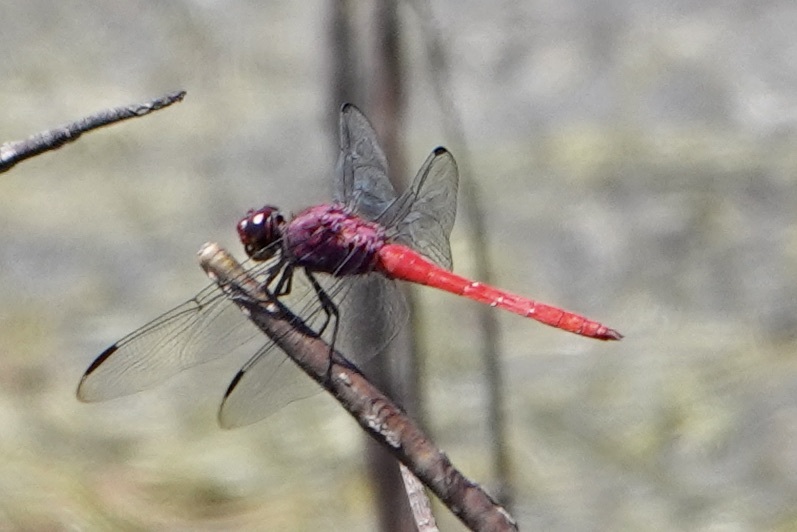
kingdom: Animalia
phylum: Arthropoda
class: Insecta
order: Odonata
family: Libellulidae
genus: Orthemis
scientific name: Orthemis schmidti
